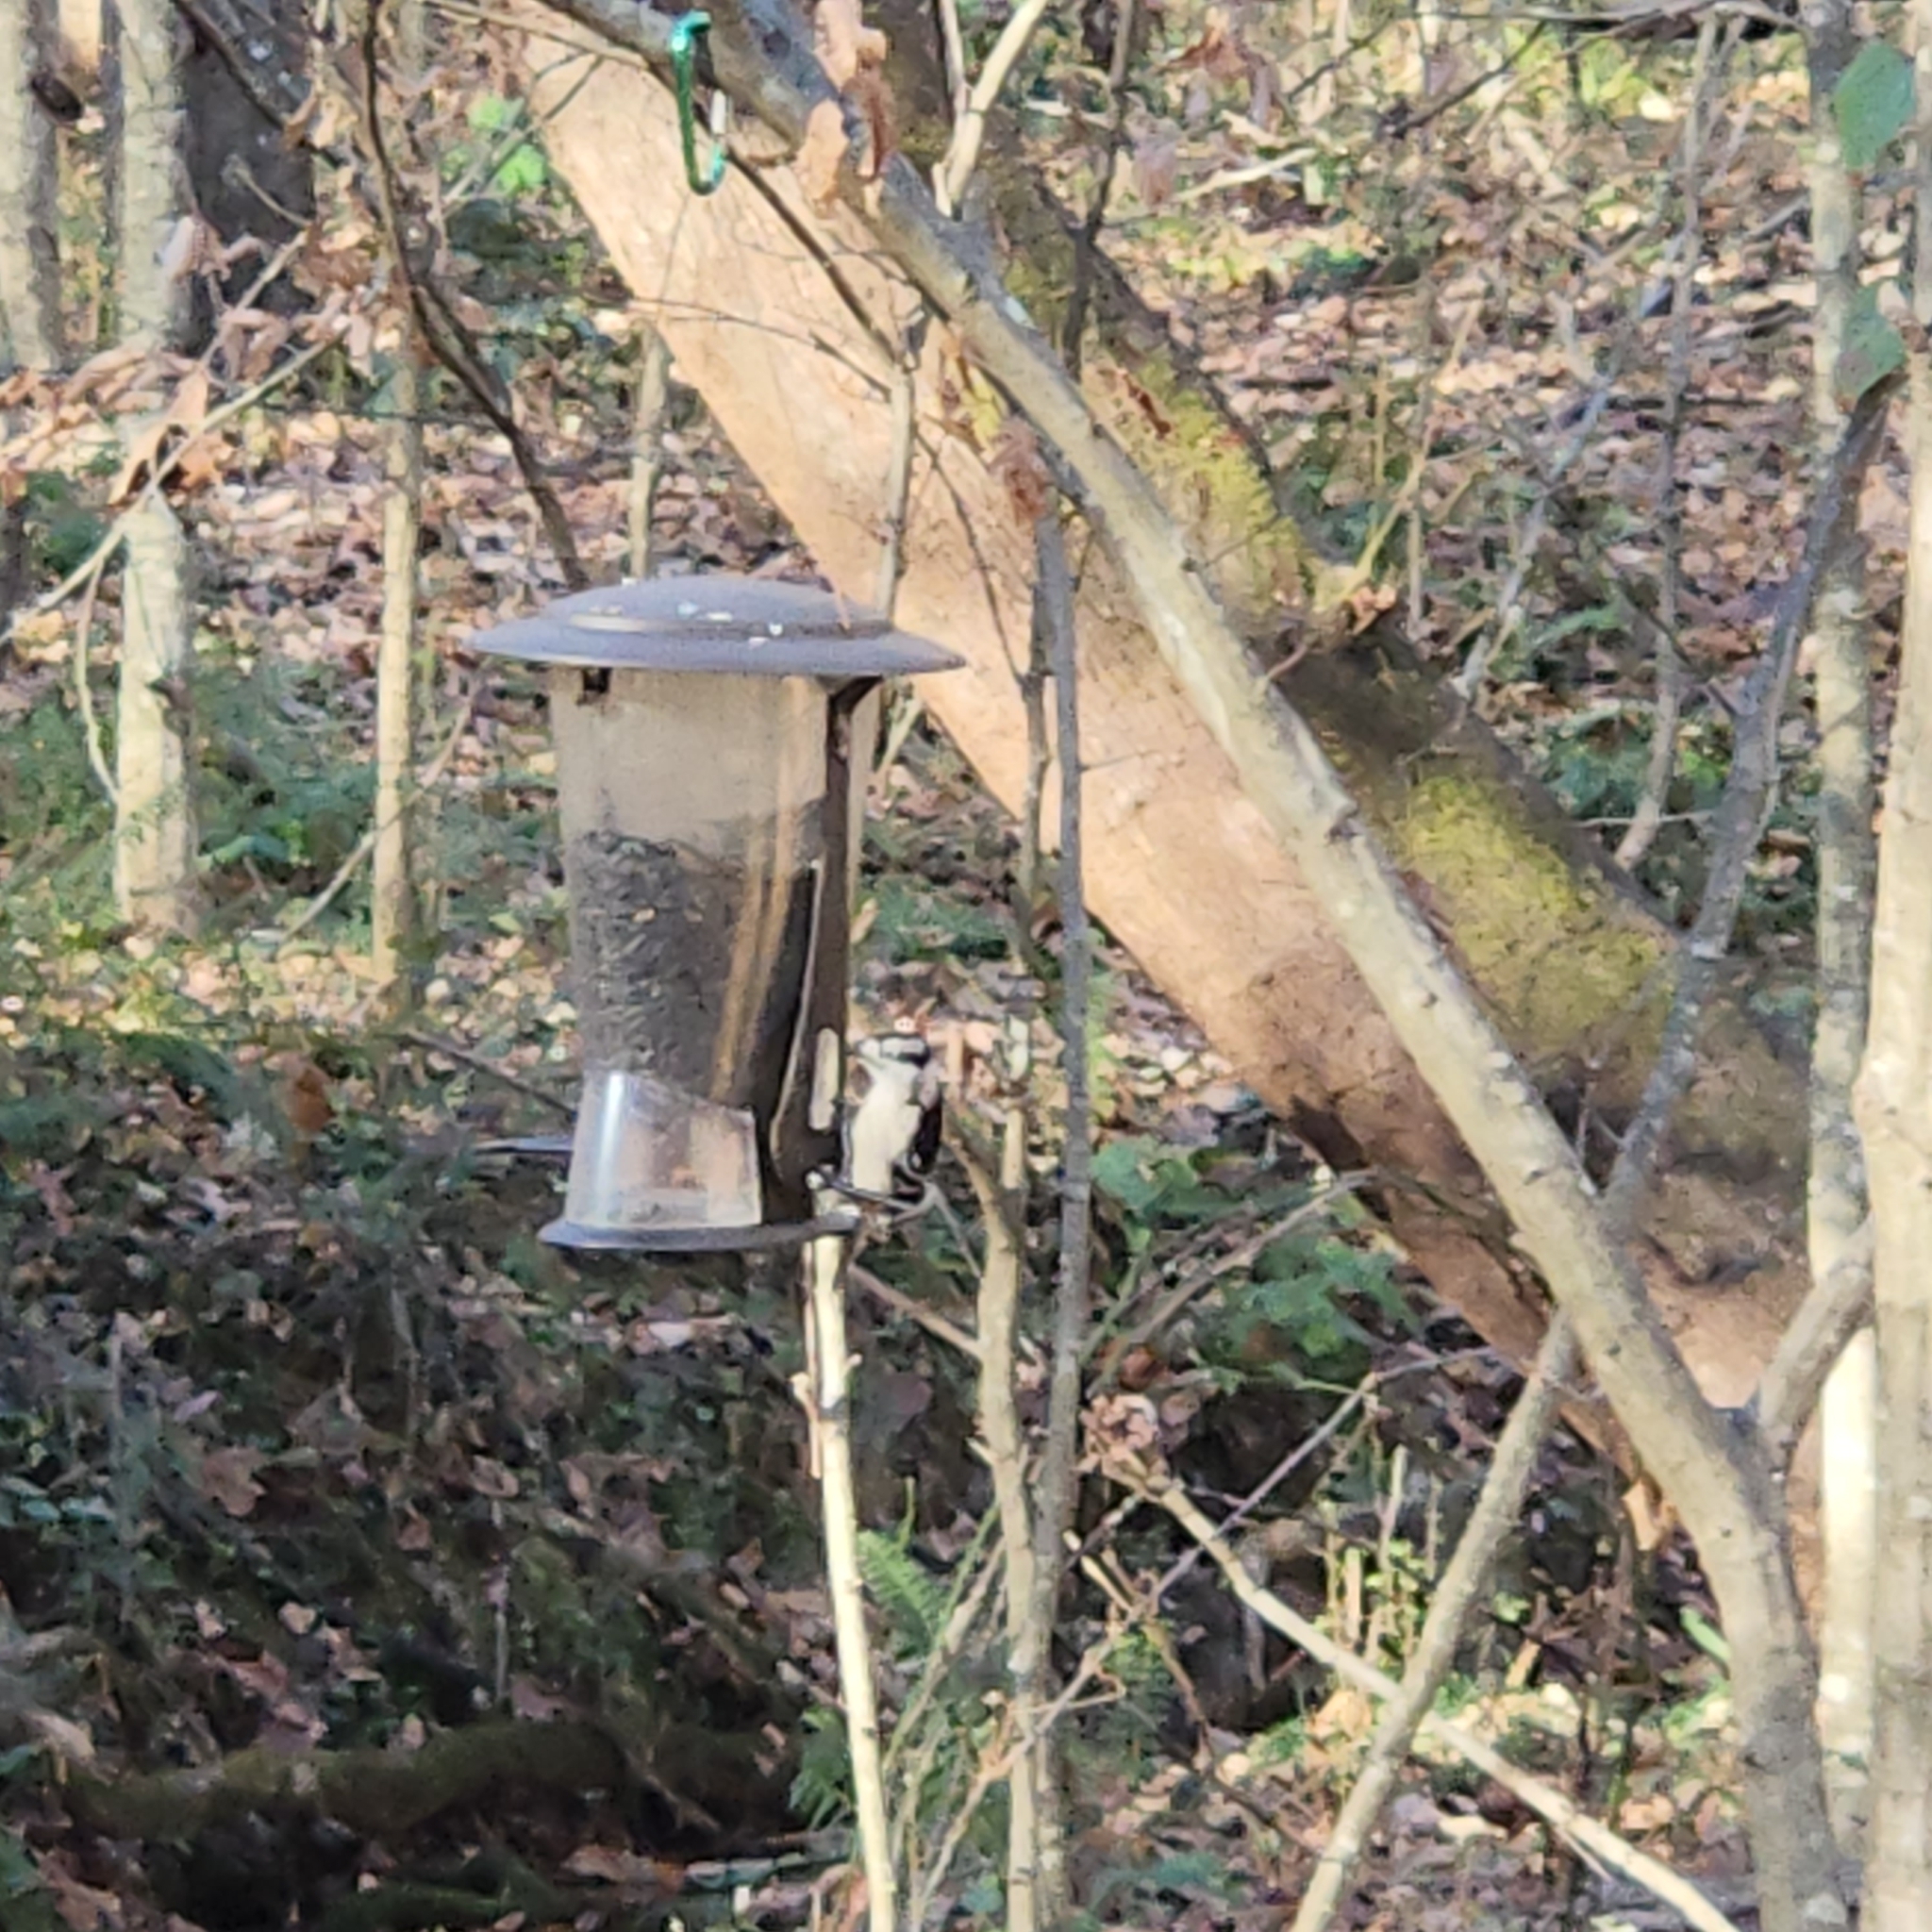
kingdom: Animalia
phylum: Chordata
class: Aves
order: Piciformes
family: Picidae
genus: Dryobates
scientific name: Dryobates pubescens
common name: Downy woodpecker
